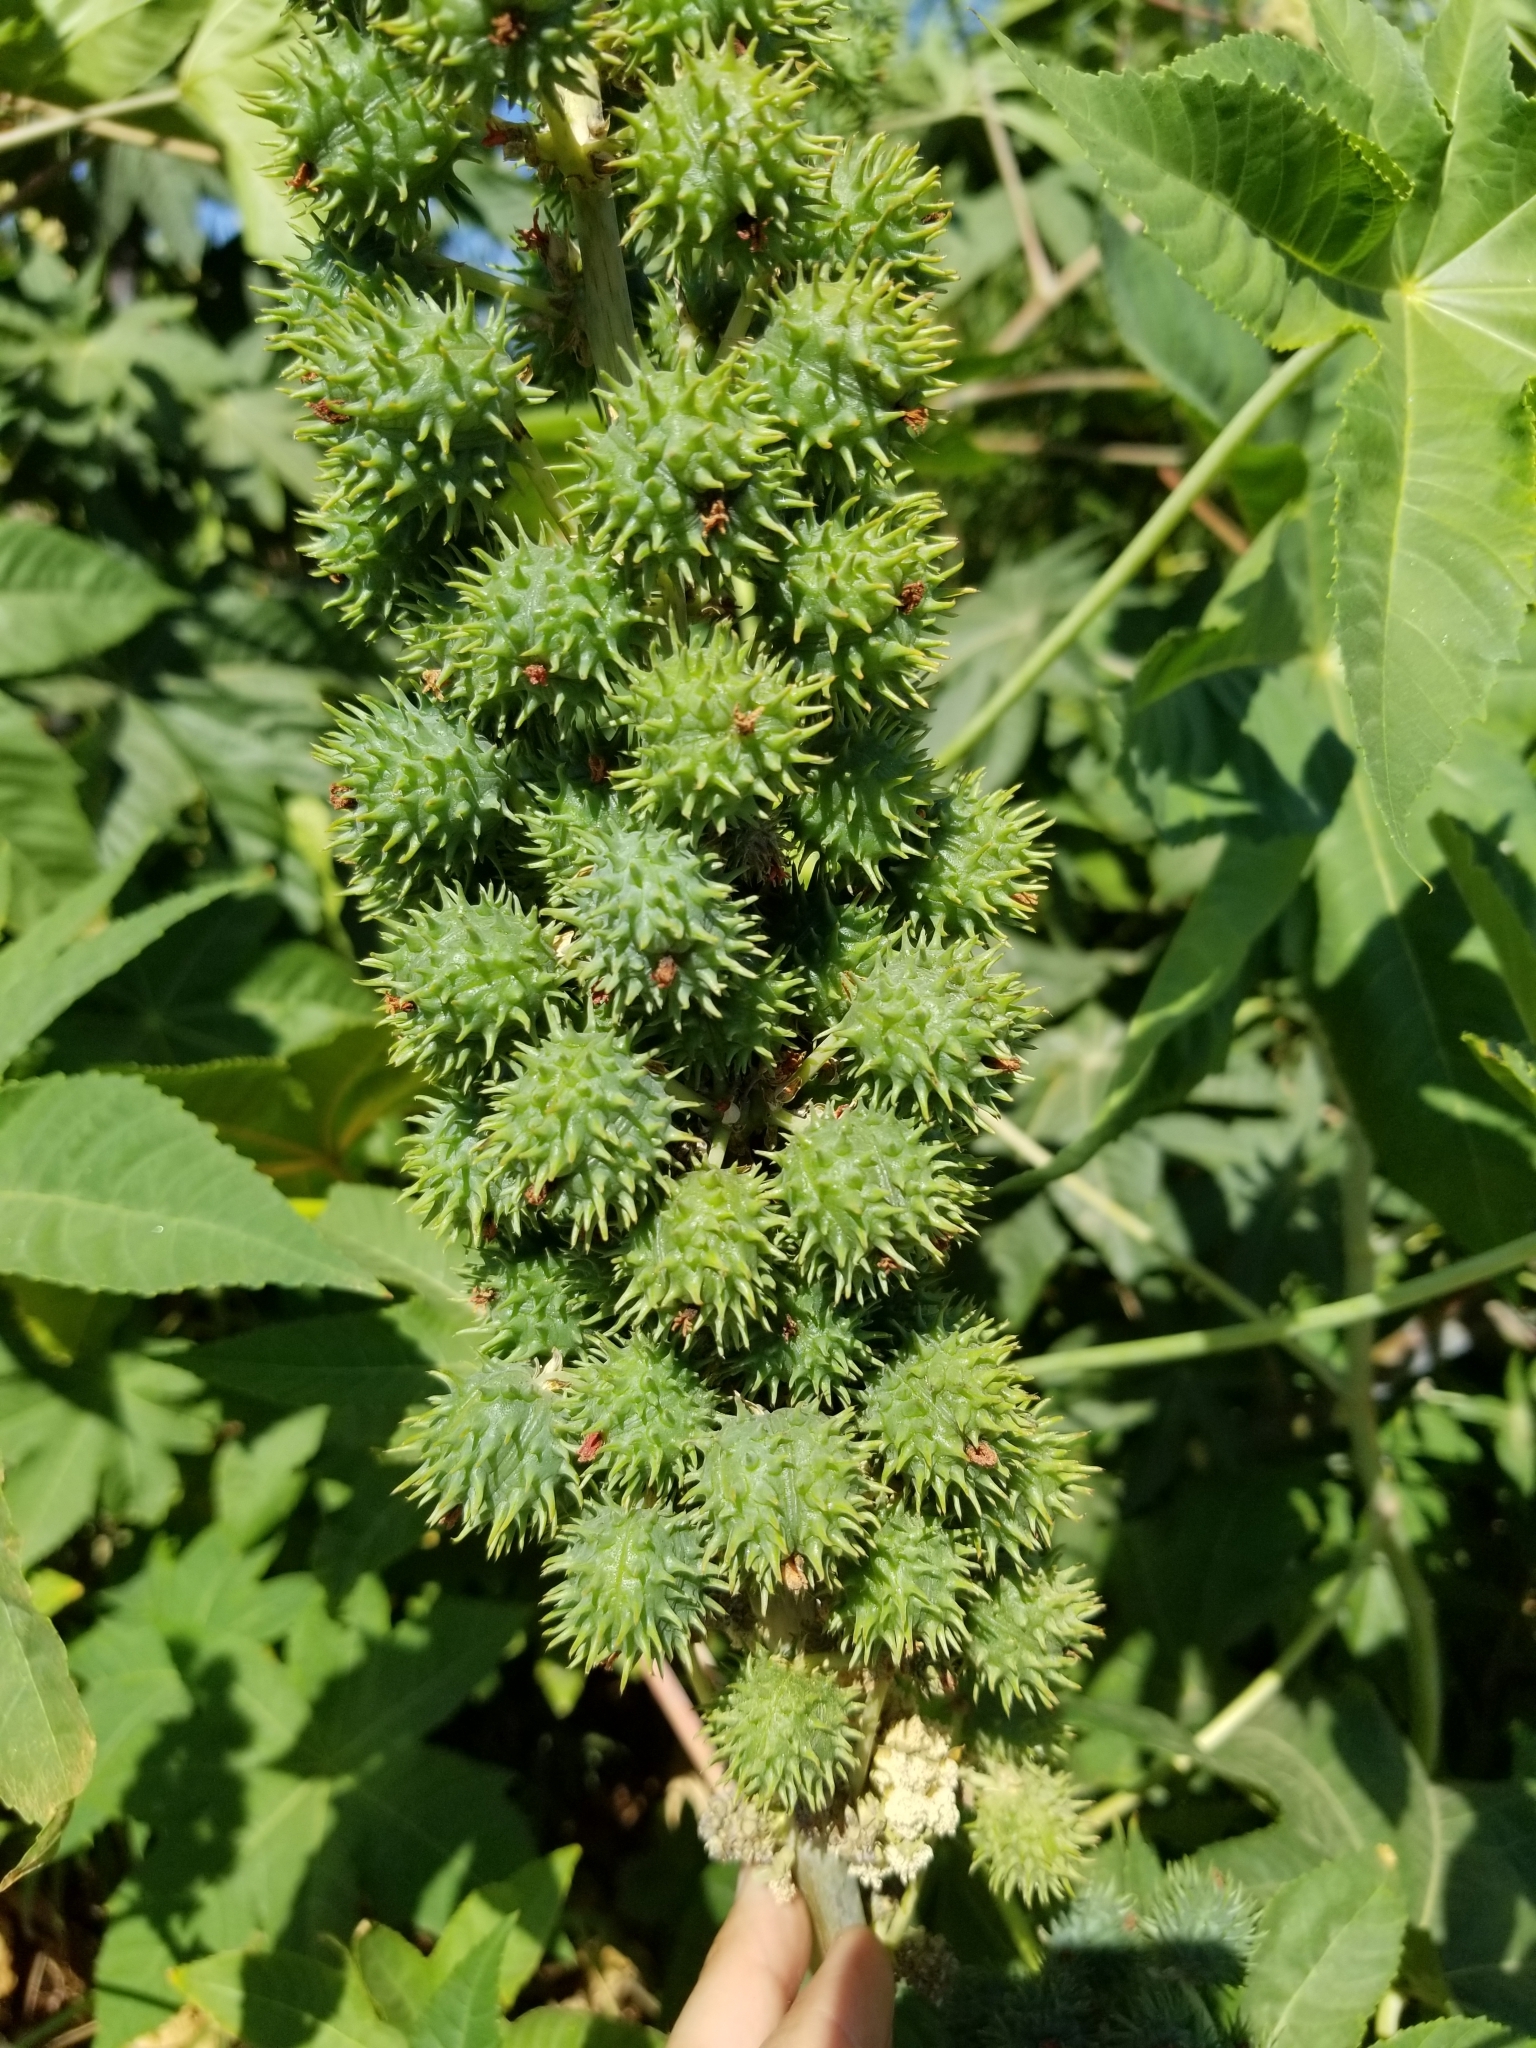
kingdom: Plantae
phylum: Tracheophyta
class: Magnoliopsida
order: Malpighiales
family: Euphorbiaceae
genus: Ricinus
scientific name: Ricinus communis
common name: Castor-oil-plant
